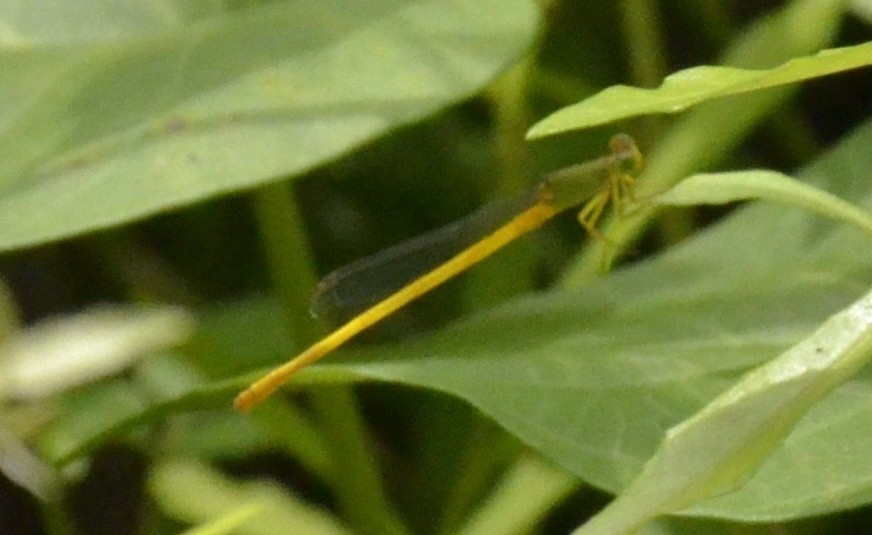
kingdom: Animalia
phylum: Arthropoda
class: Insecta
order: Odonata
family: Coenagrionidae
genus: Ceriagrion
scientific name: Ceriagrion coromandelianum
